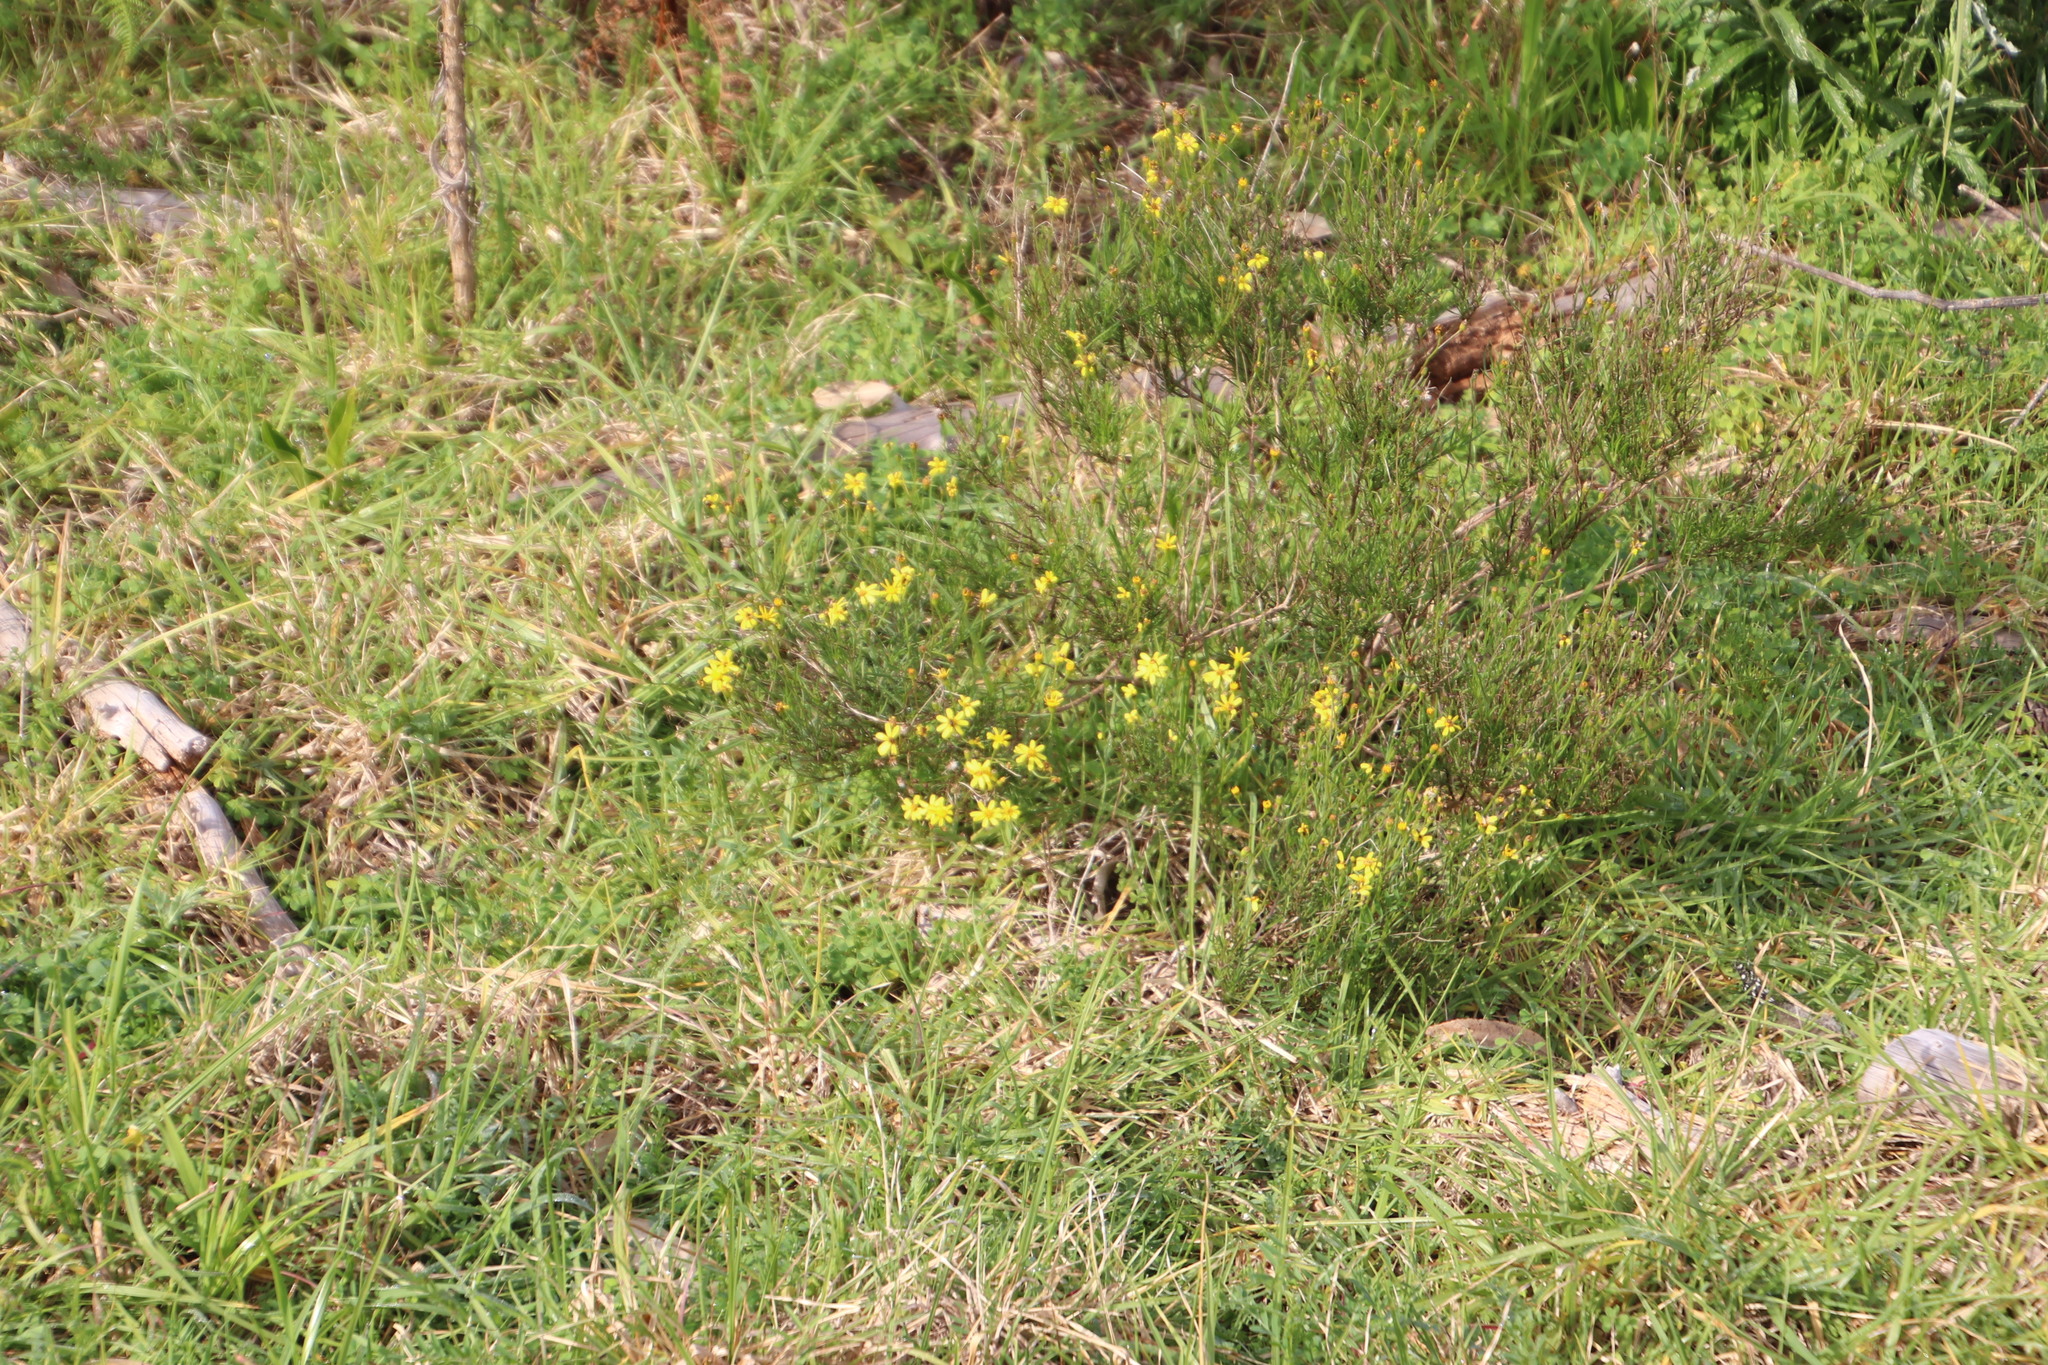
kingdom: Plantae
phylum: Tracheophyta
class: Magnoliopsida
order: Asterales
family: Asteraceae
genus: Senecio
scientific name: Senecio burchellii
